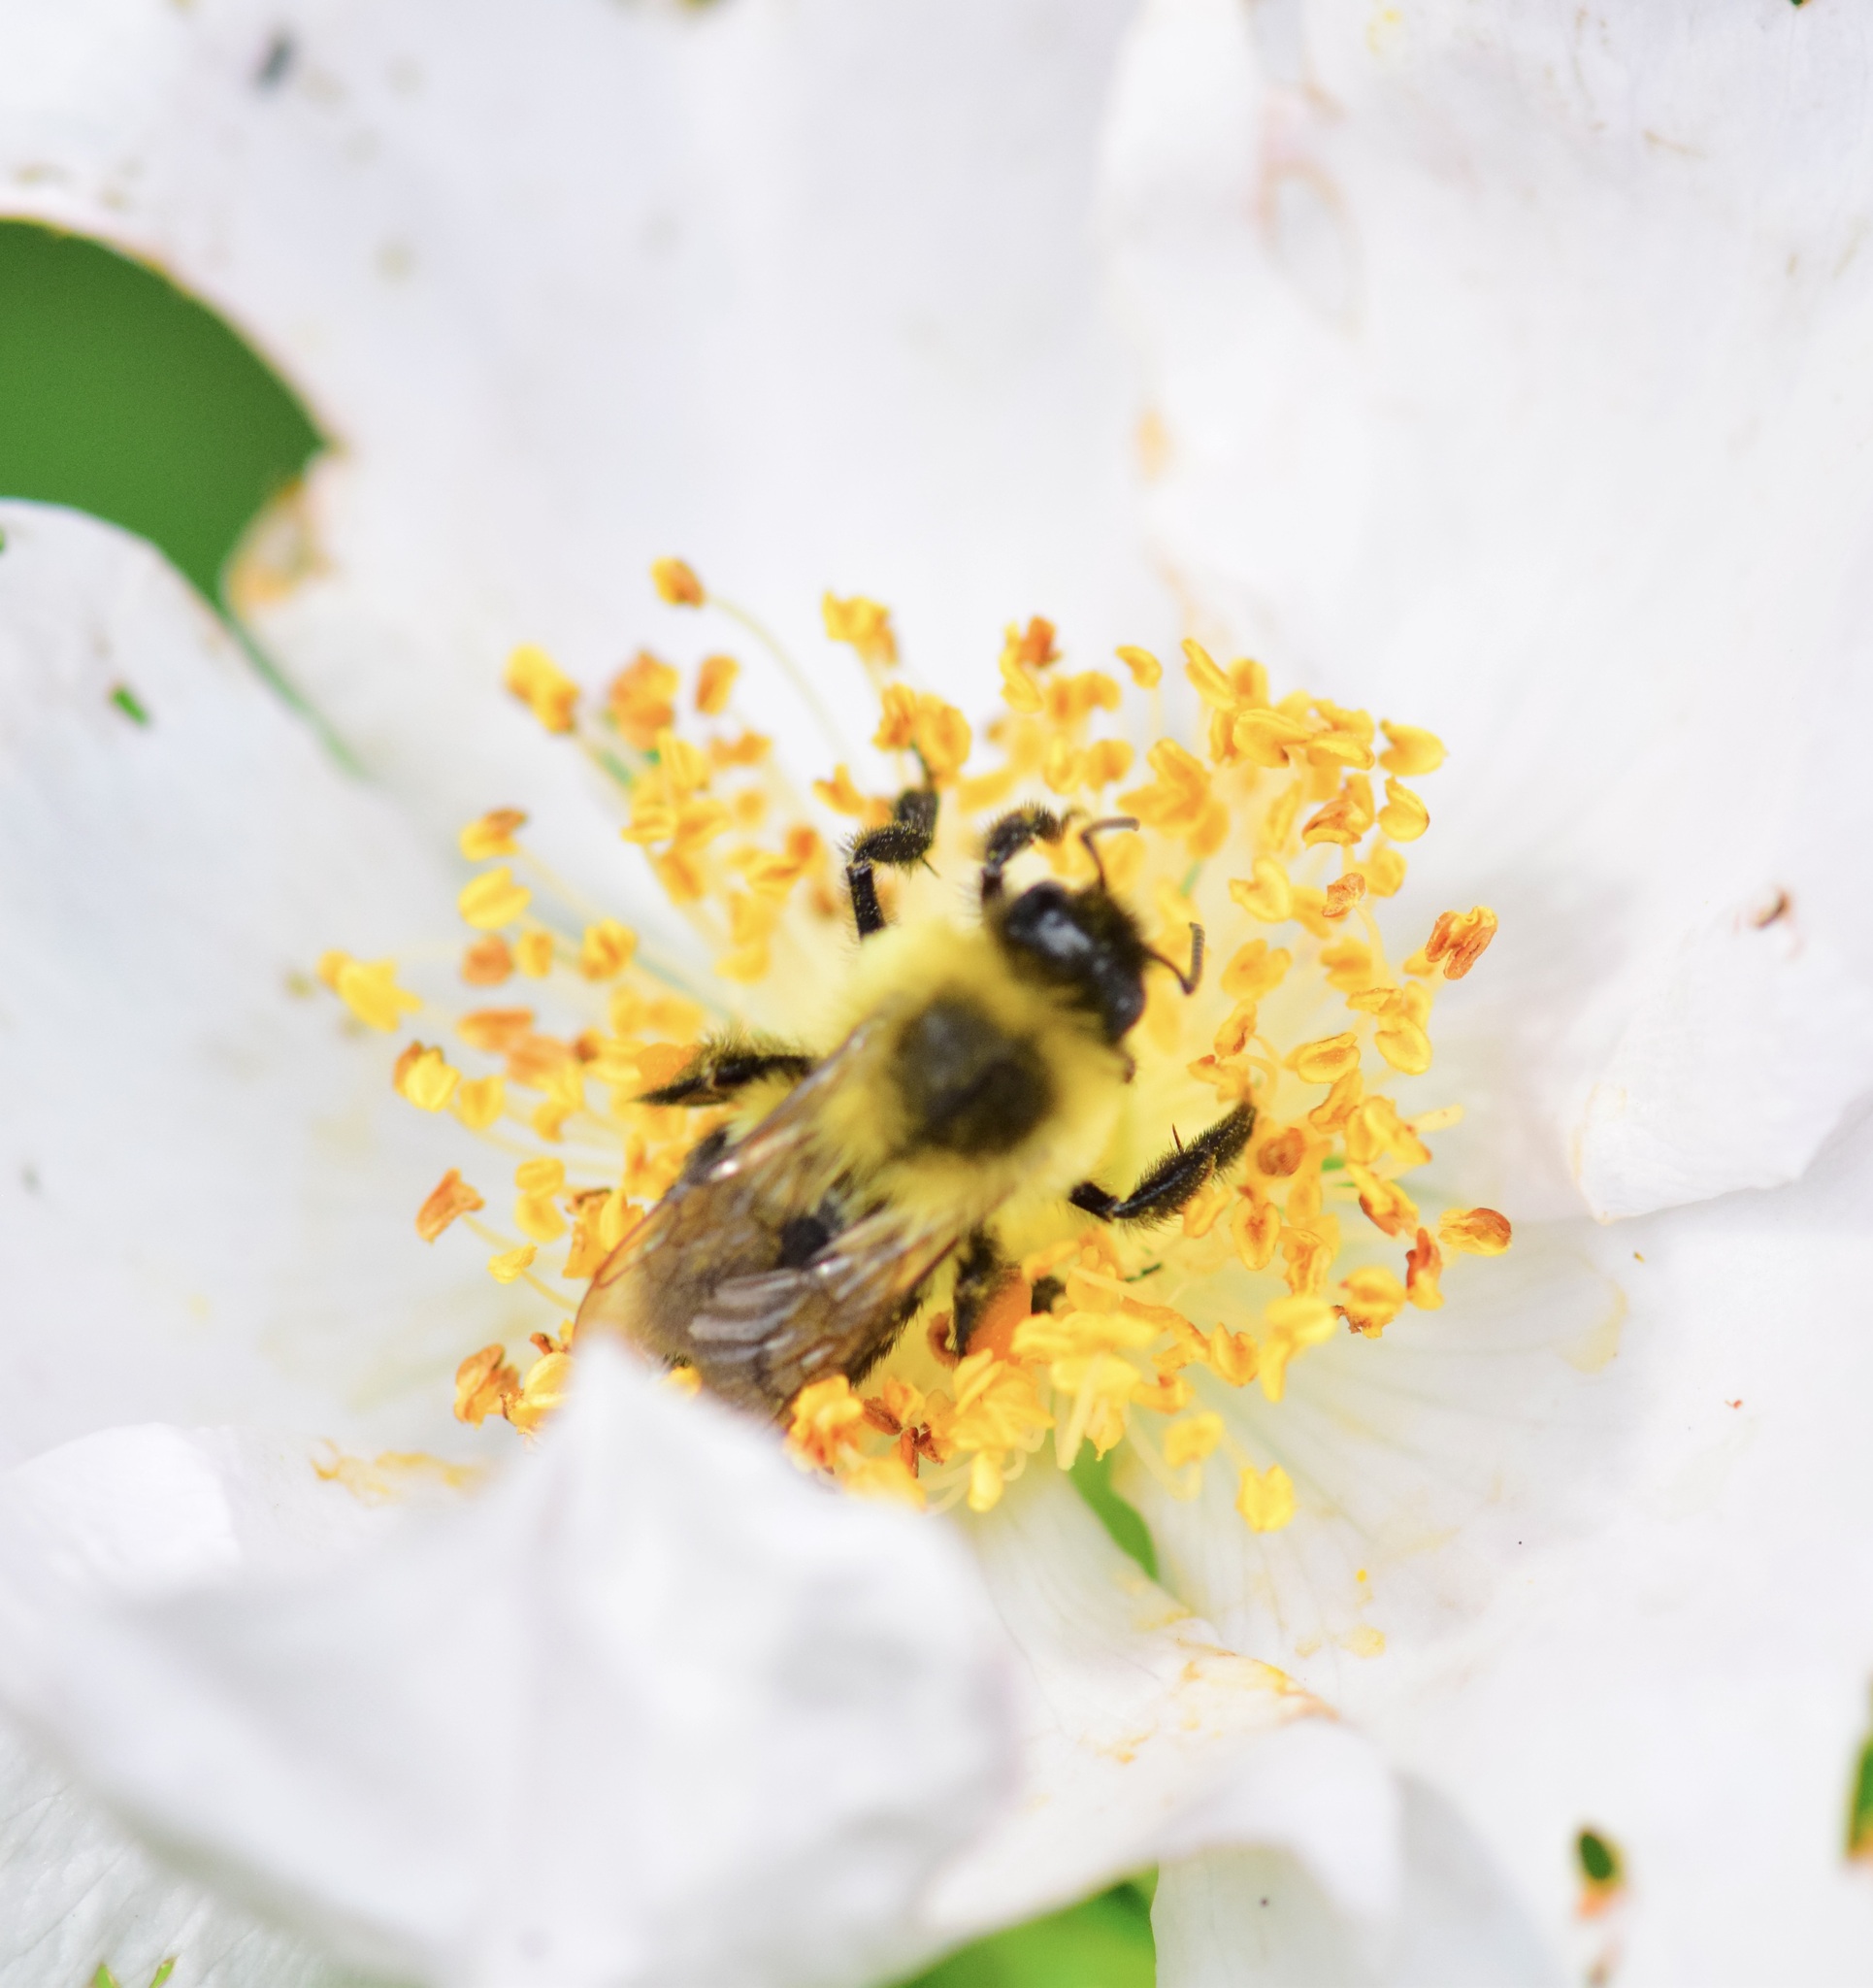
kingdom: Animalia
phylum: Arthropoda
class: Insecta
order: Hymenoptera
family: Apidae
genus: Bombus
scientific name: Bombus impatiens
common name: Common eastern bumble bee
